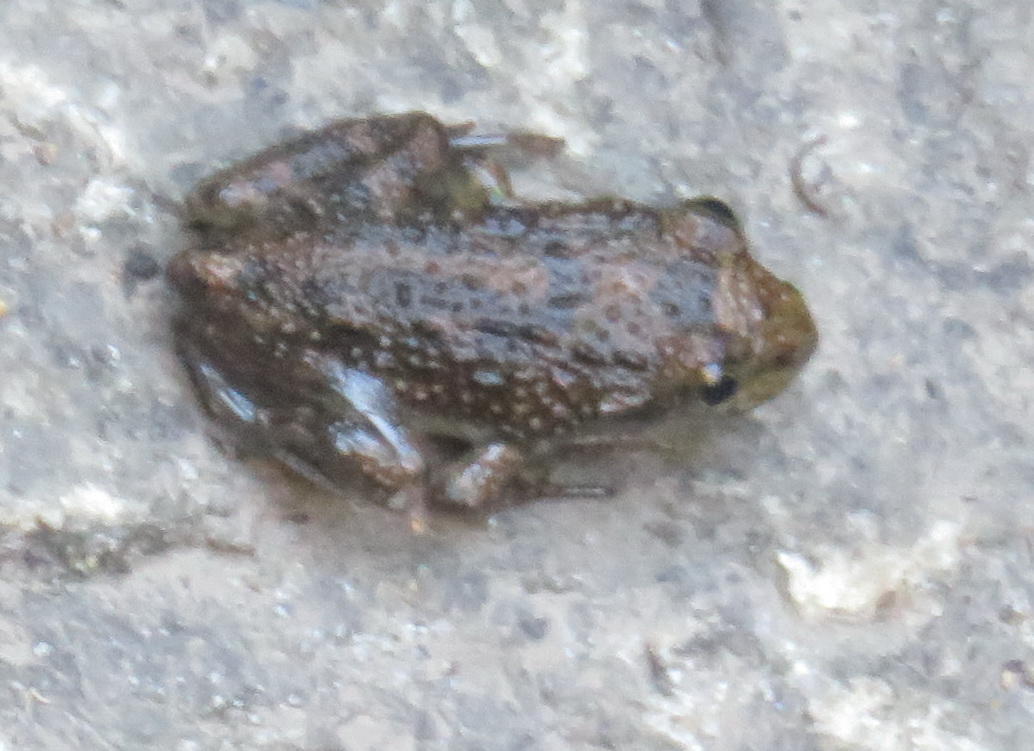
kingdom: Animalia
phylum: Chordata
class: Amphibia
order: Anura
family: Pyxicephalidae
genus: Amietia
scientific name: Amietia fuscigula
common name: Cape rana
